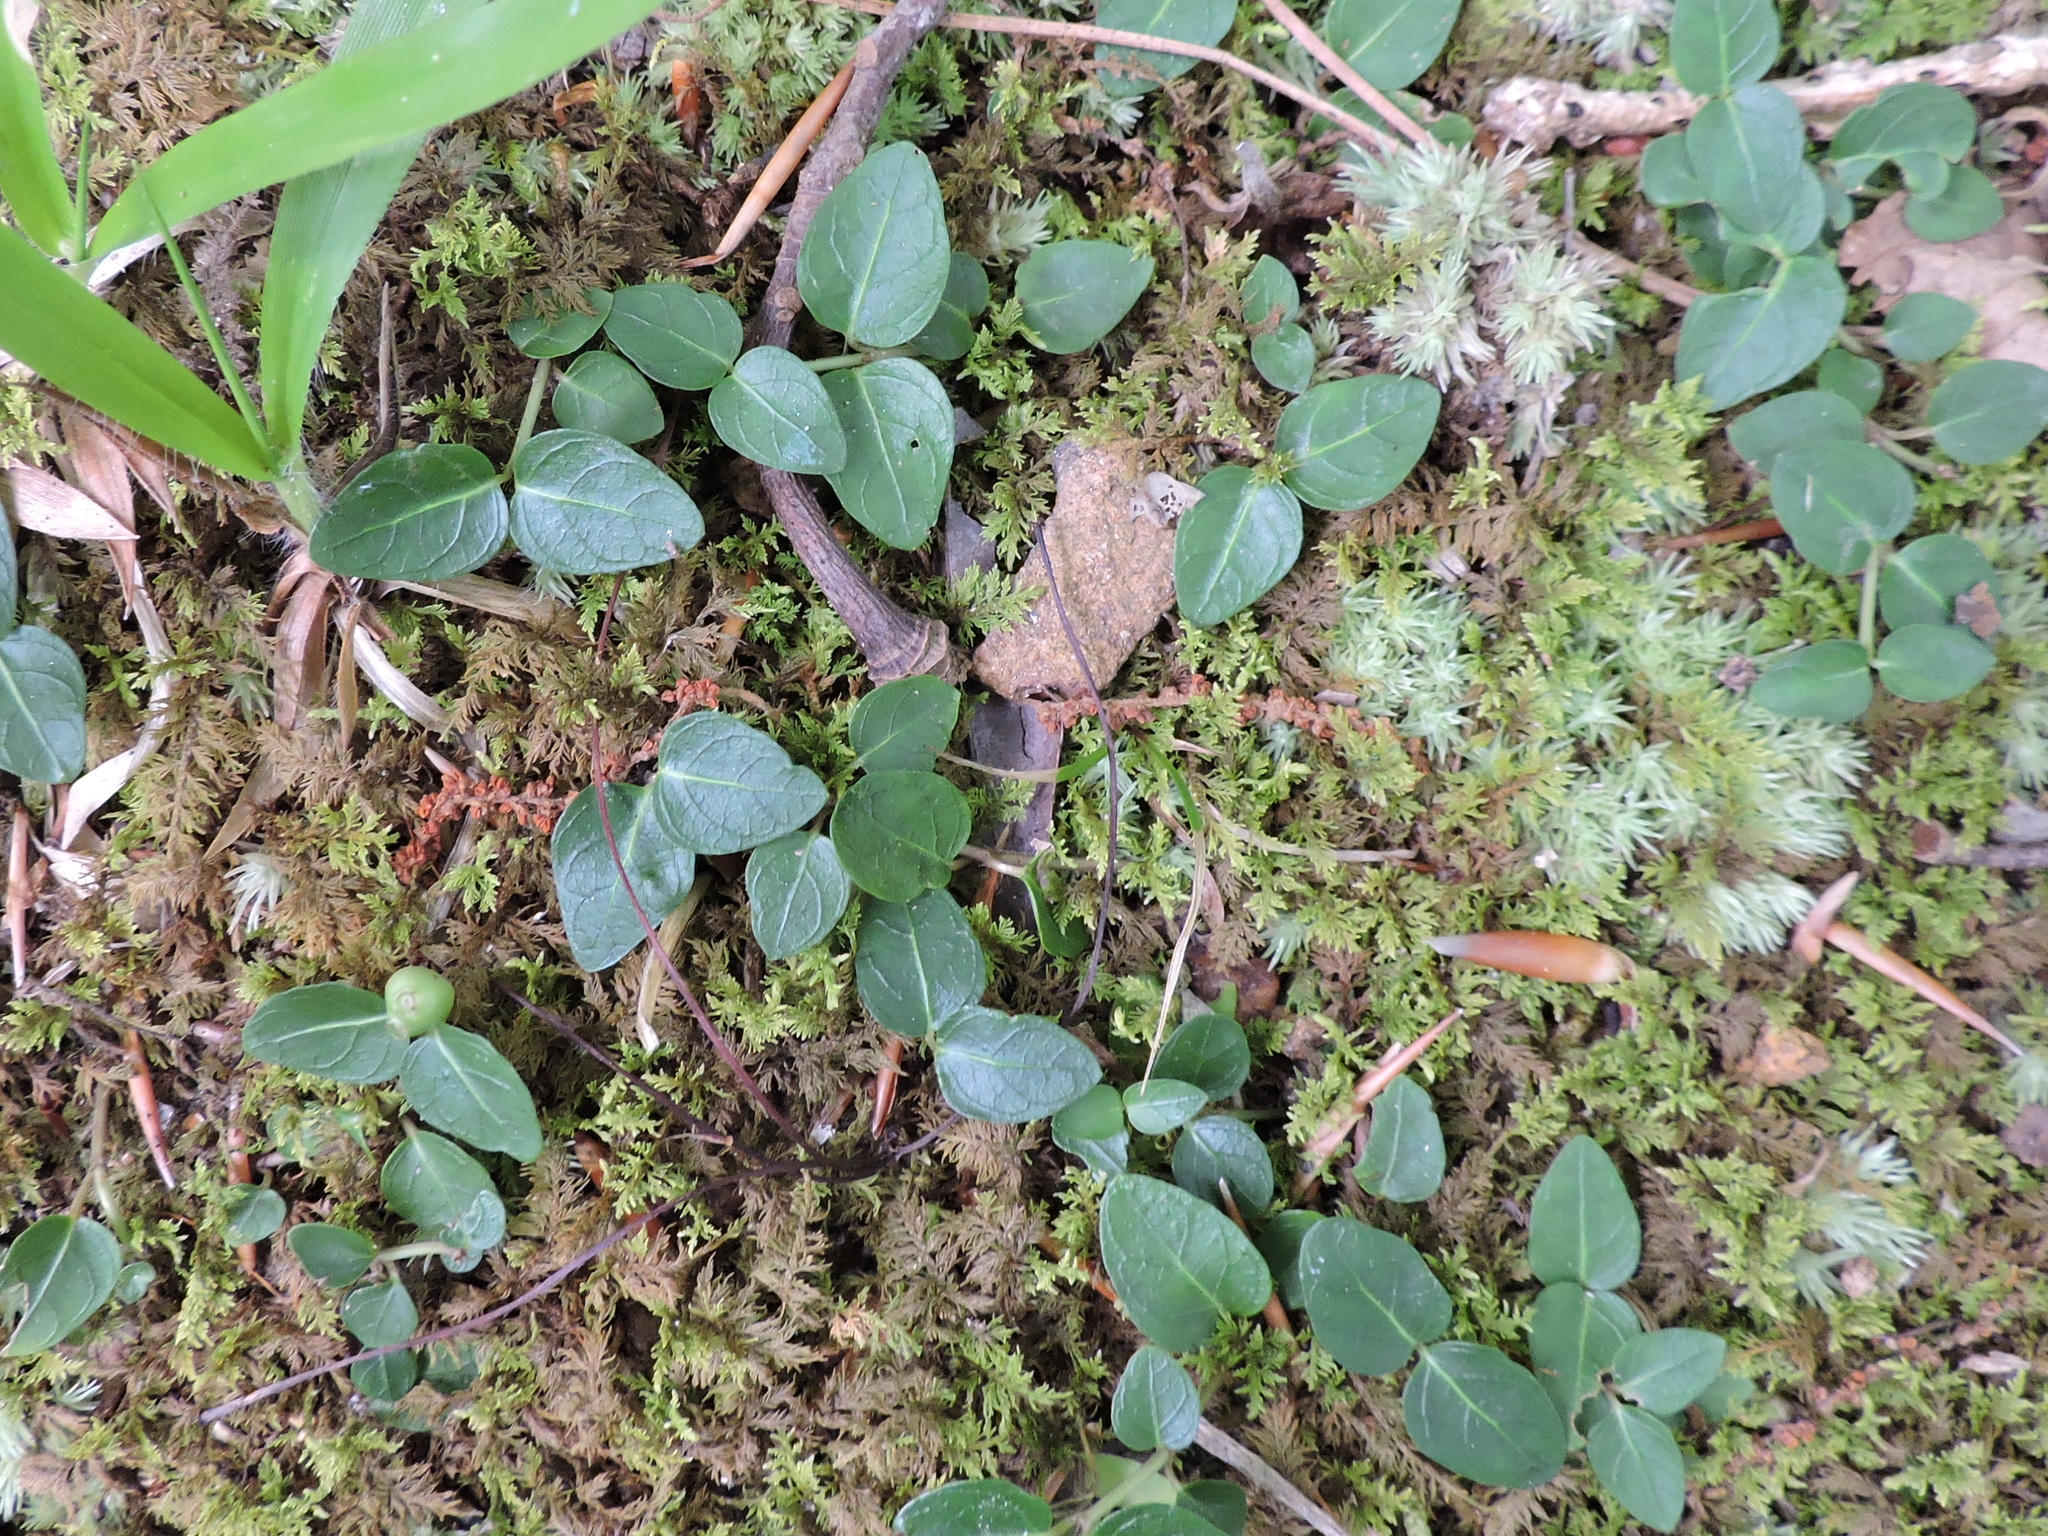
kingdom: Plantae
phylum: Tracheophyta
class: Magnoliopsida
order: Gentianales
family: Rubiaceae
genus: Mitchella
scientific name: Mitchella repens
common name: Partridge-berry
